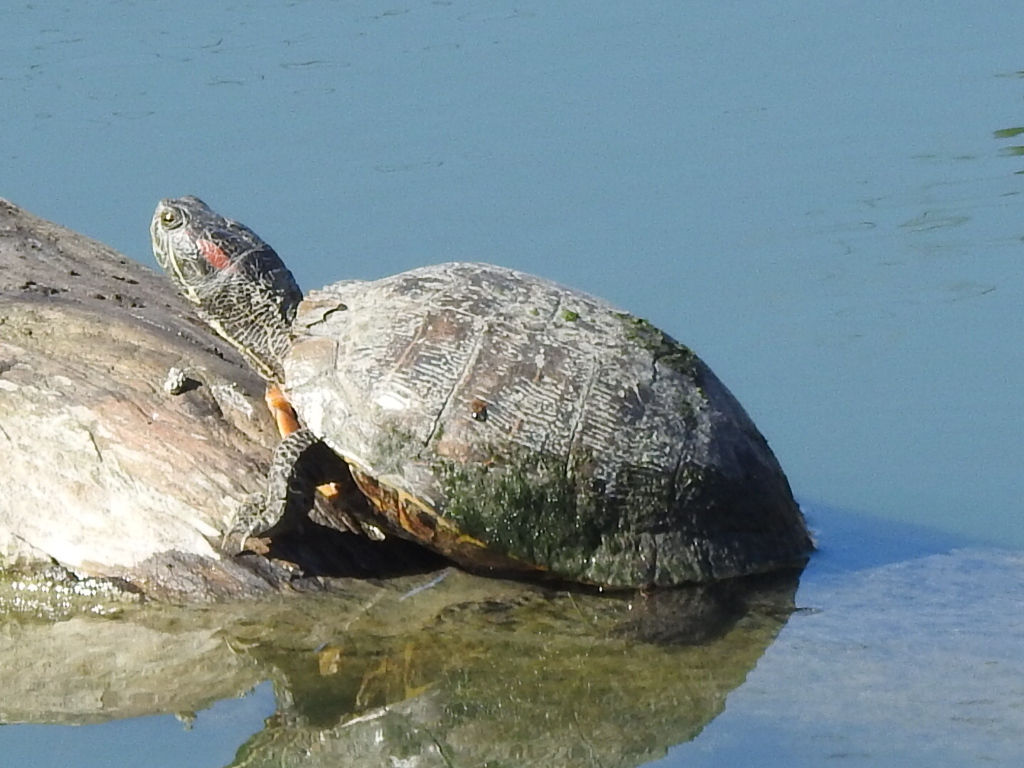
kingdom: Animalia
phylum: Chordata
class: Testudines
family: Emydidae
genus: Trachemys
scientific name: Trachemys scripta
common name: Slider
